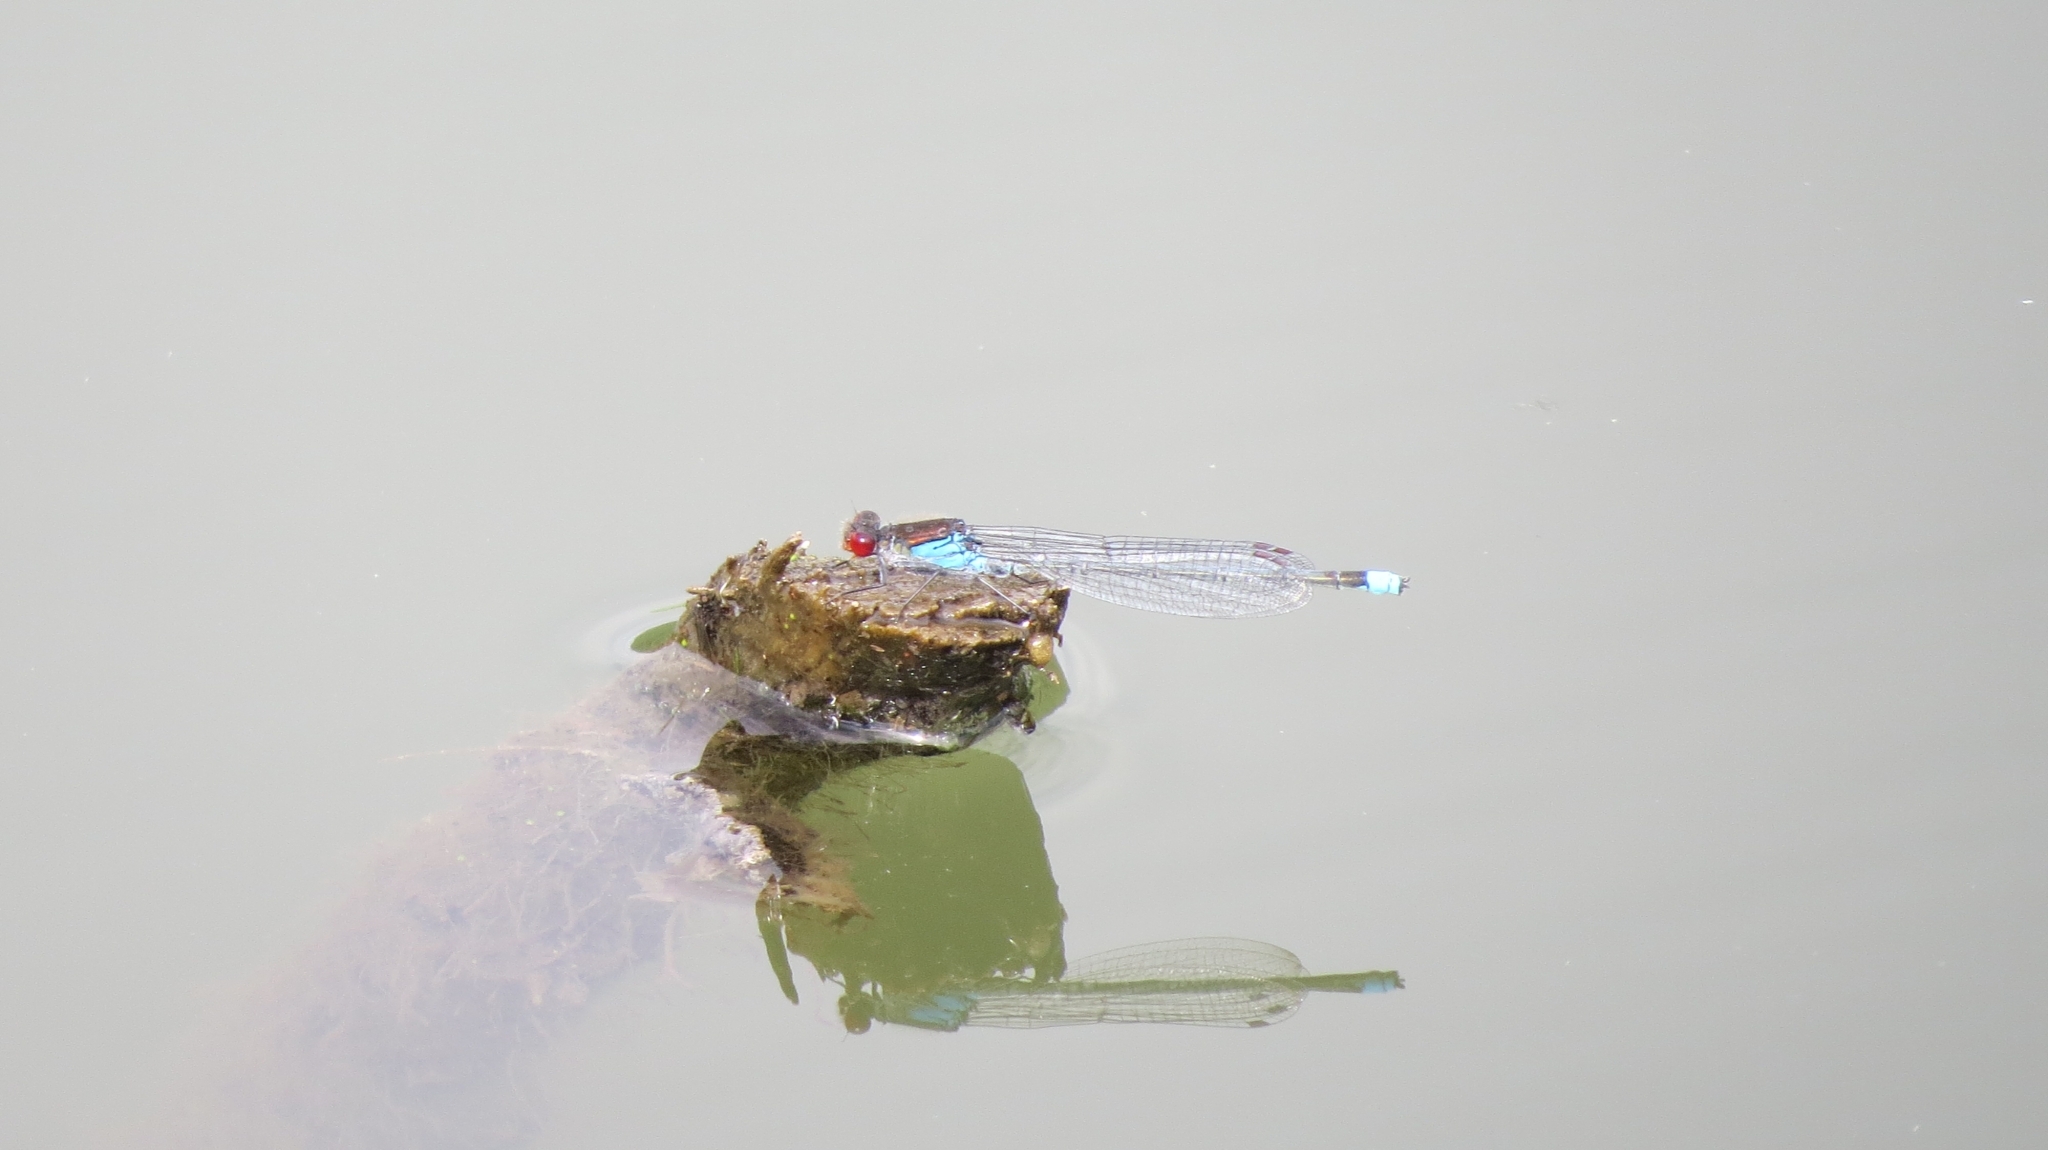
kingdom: Animalia
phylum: Arthropoda
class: Insecta
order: Odonata
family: Coenagrionidae
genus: Erythromma
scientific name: Erythromma najas
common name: Red-eyed damselfly
